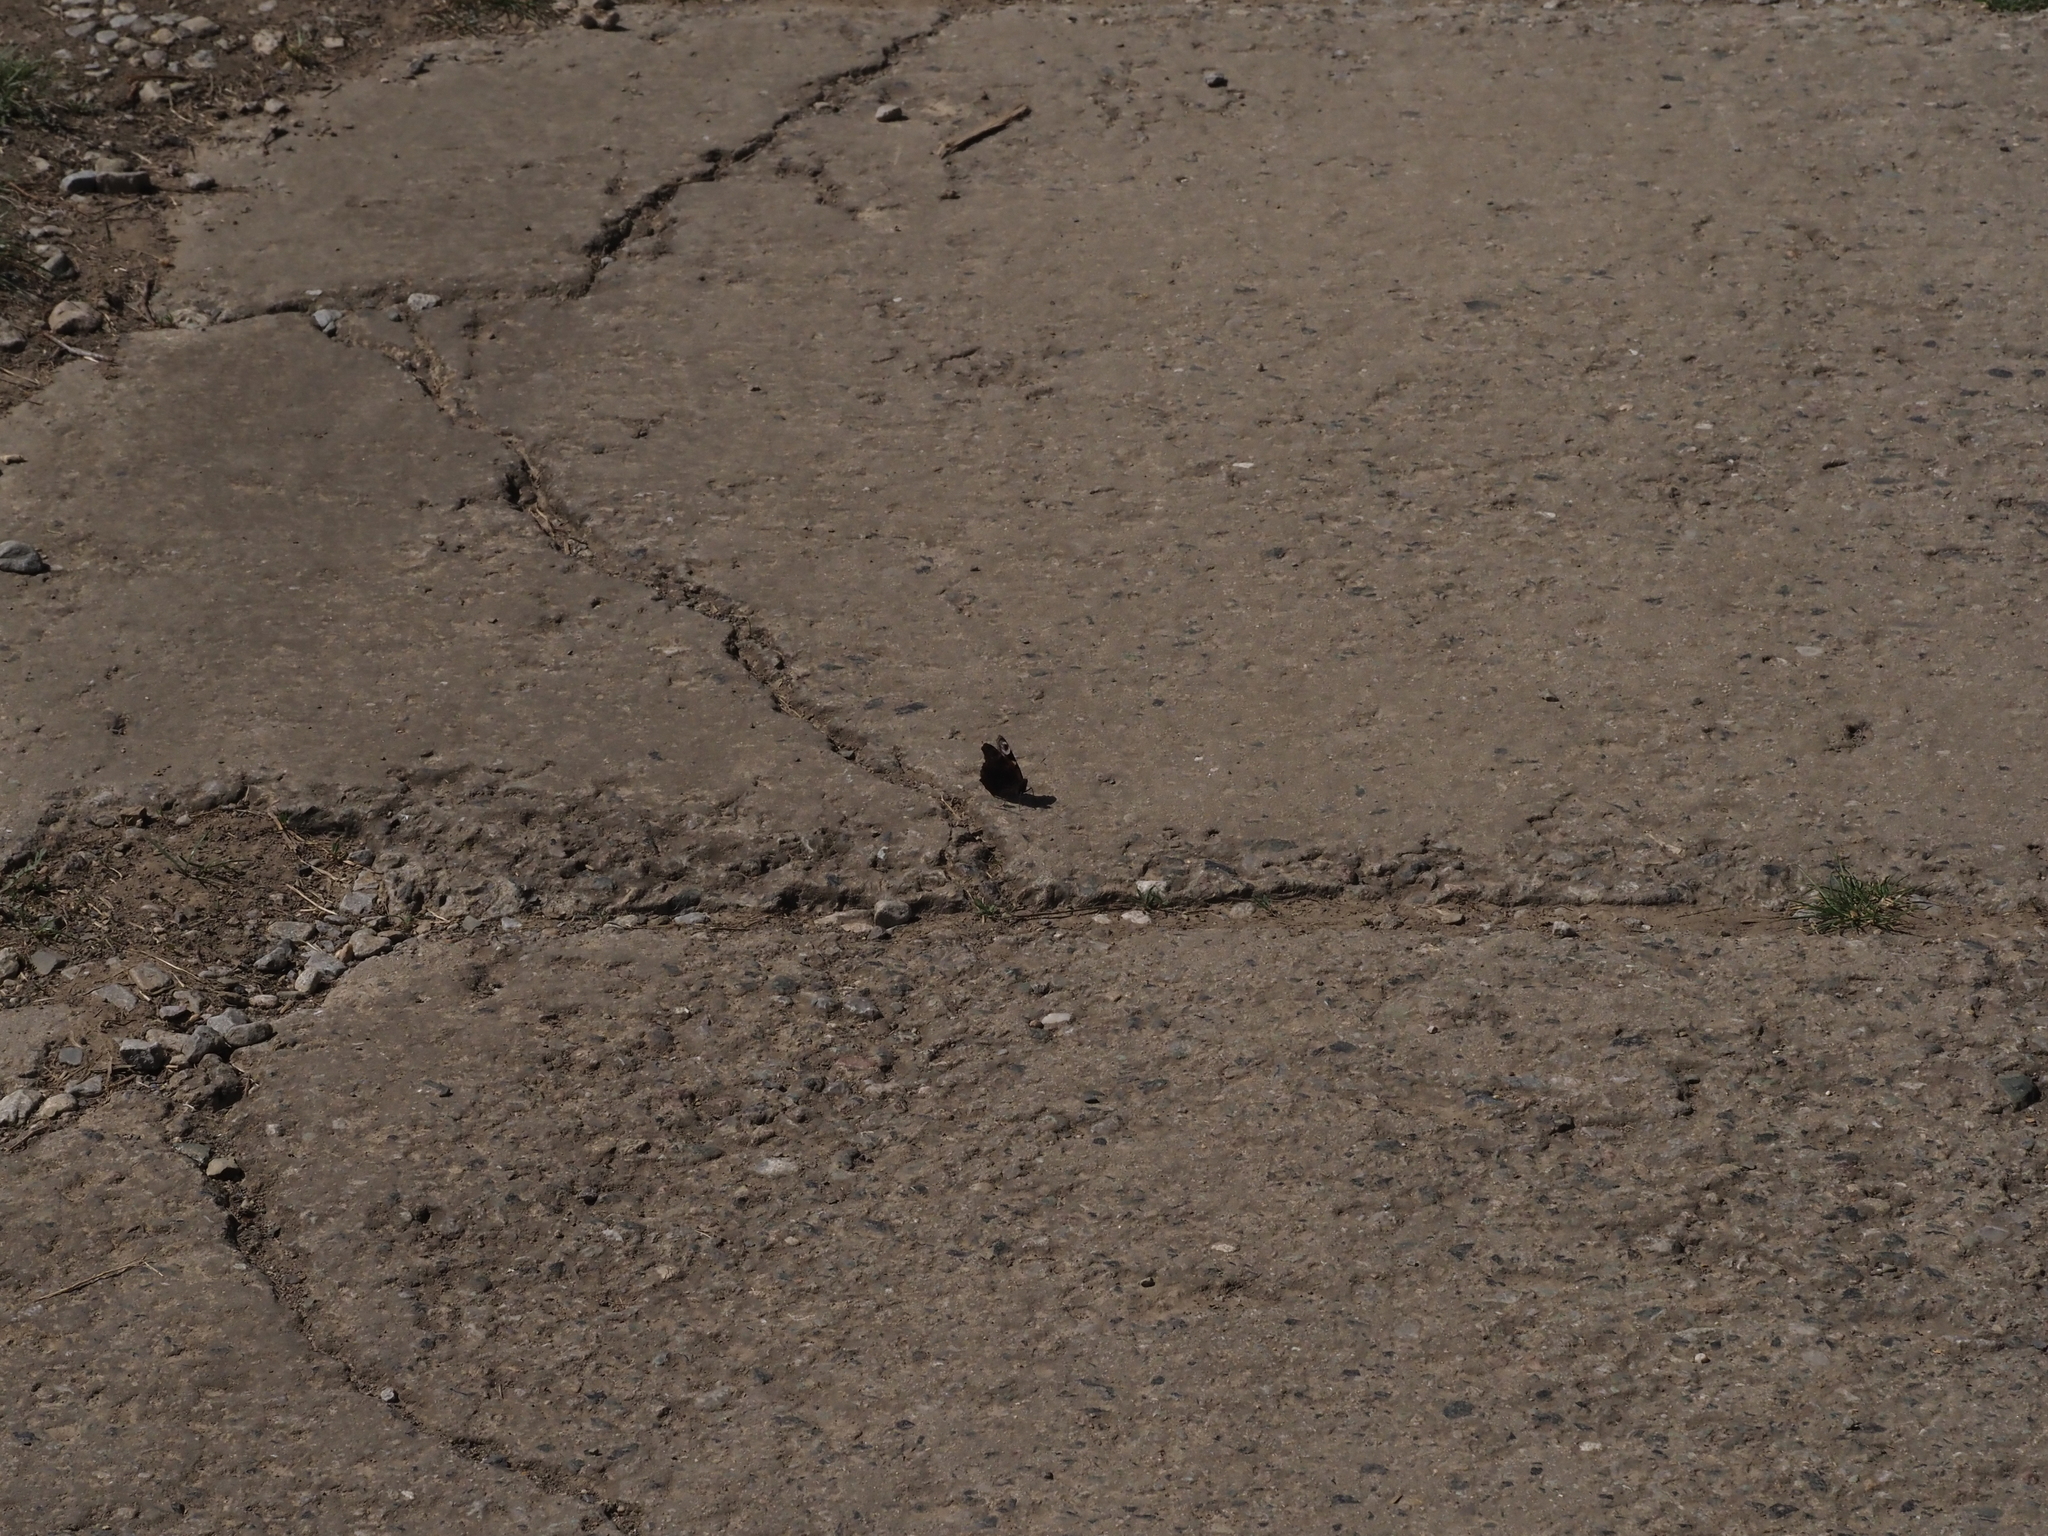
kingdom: Animalia
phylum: Arthropoda
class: Insecta
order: Lepidoptera
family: Nymphalidae
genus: Aglais
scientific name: Aglais io
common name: Peacock
